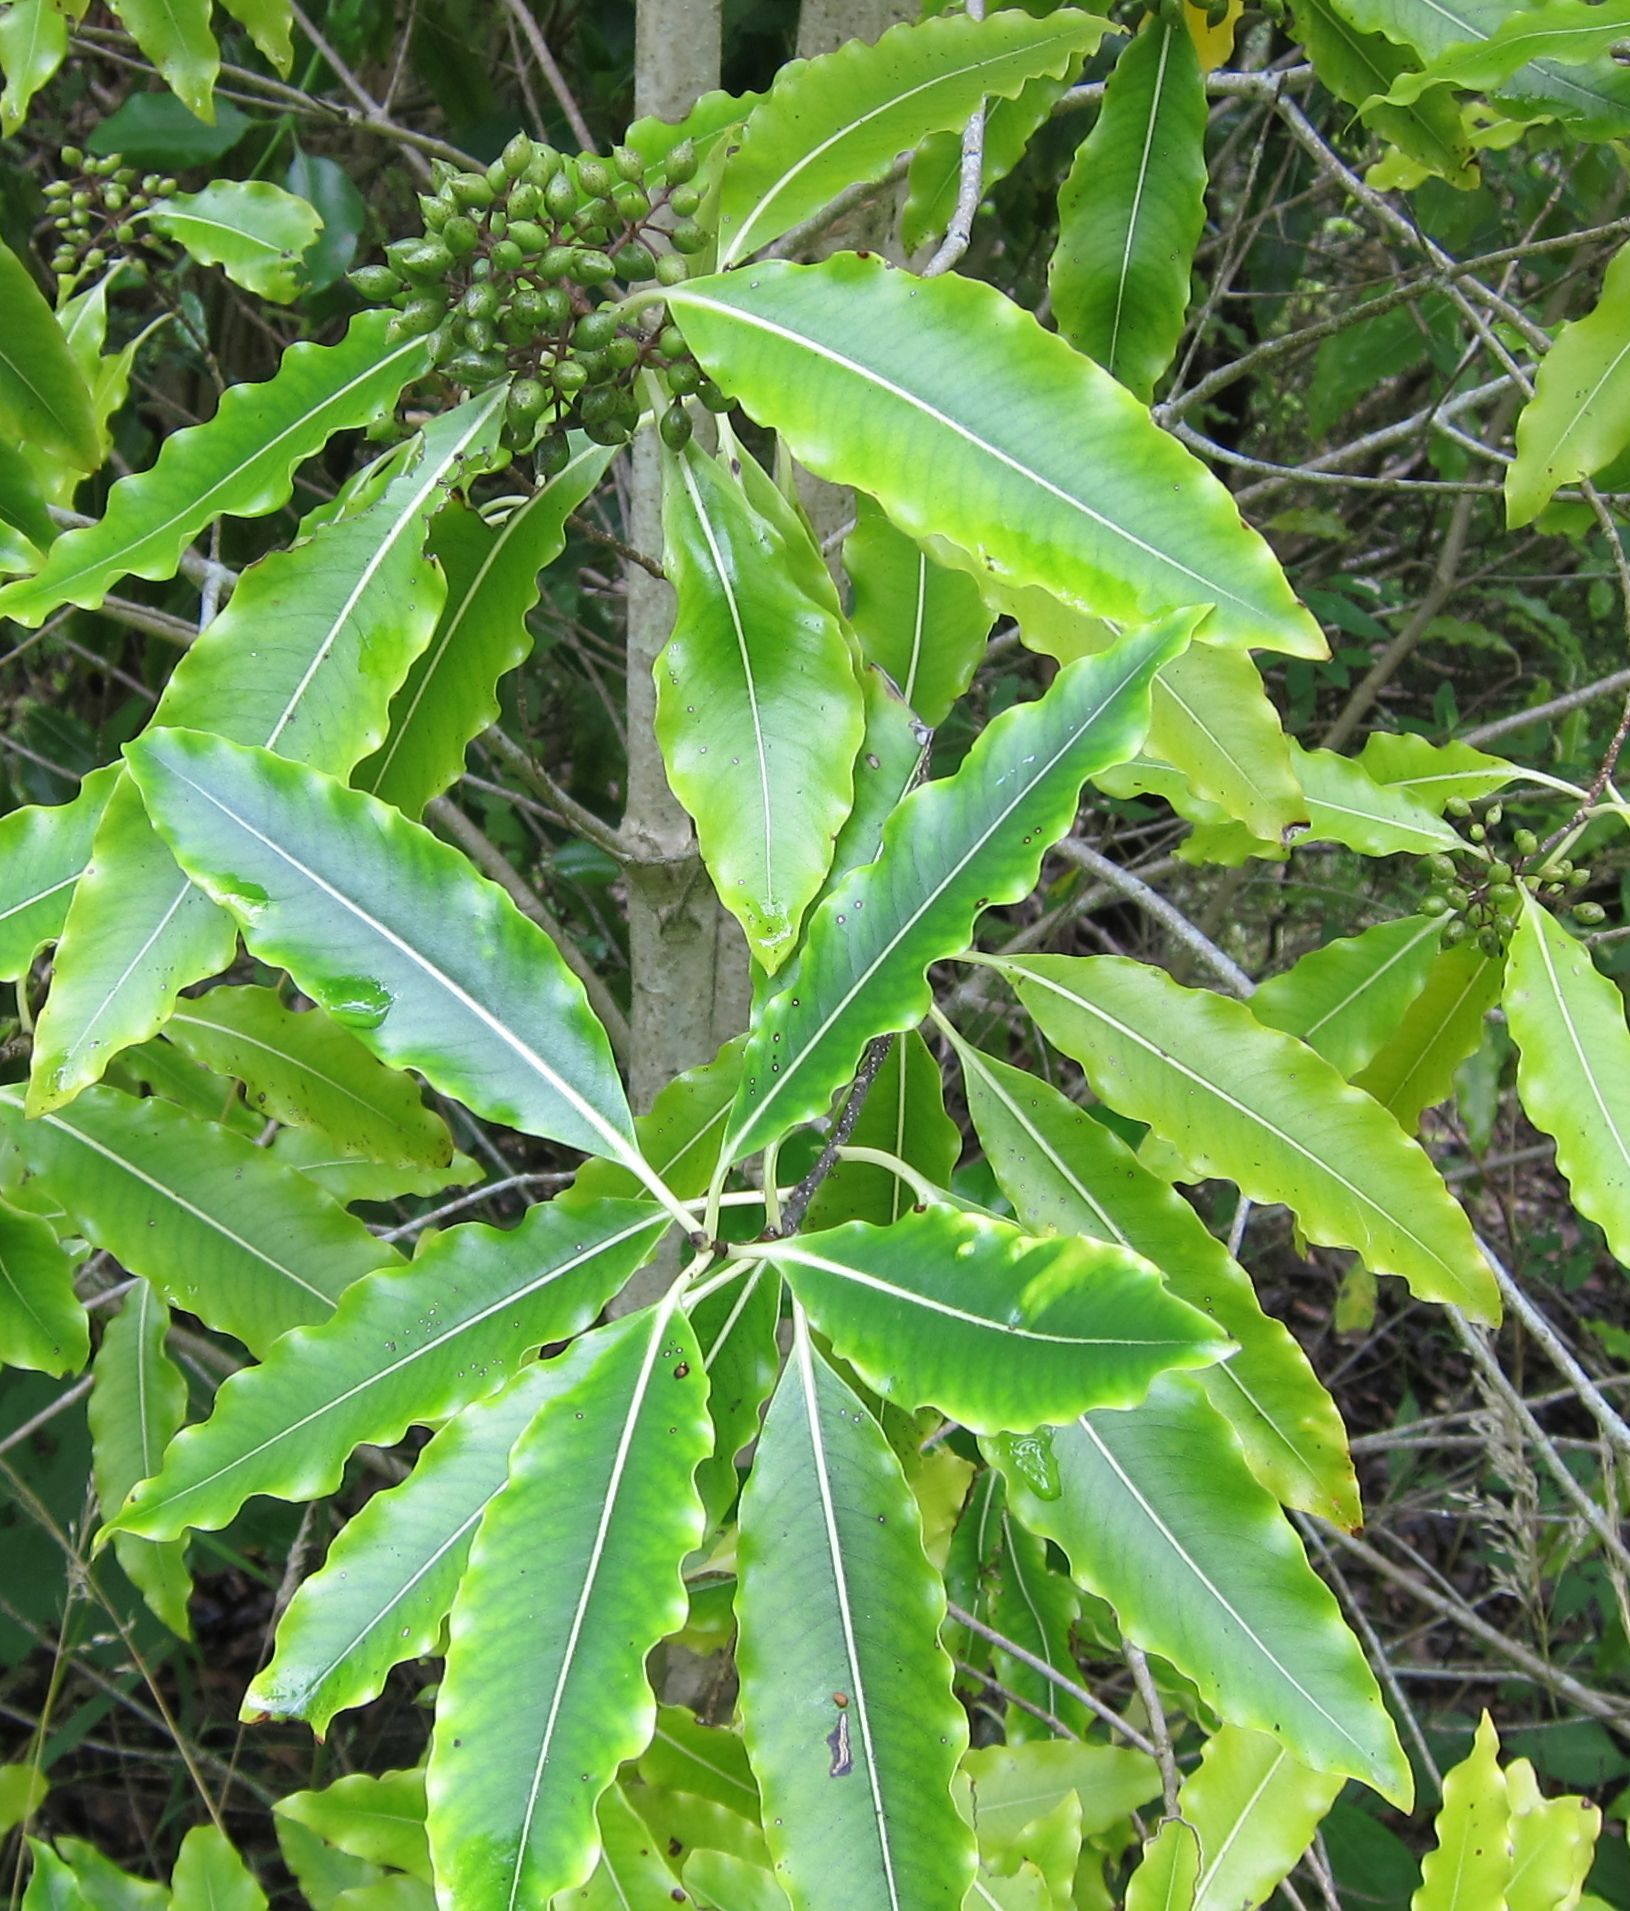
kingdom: Plantae
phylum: Tracheophyta
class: Magnoliopsida
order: Apiales
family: Pittosporaceae
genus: Pittosporum
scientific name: Pittosporum eugenioides
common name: Lemonwood
